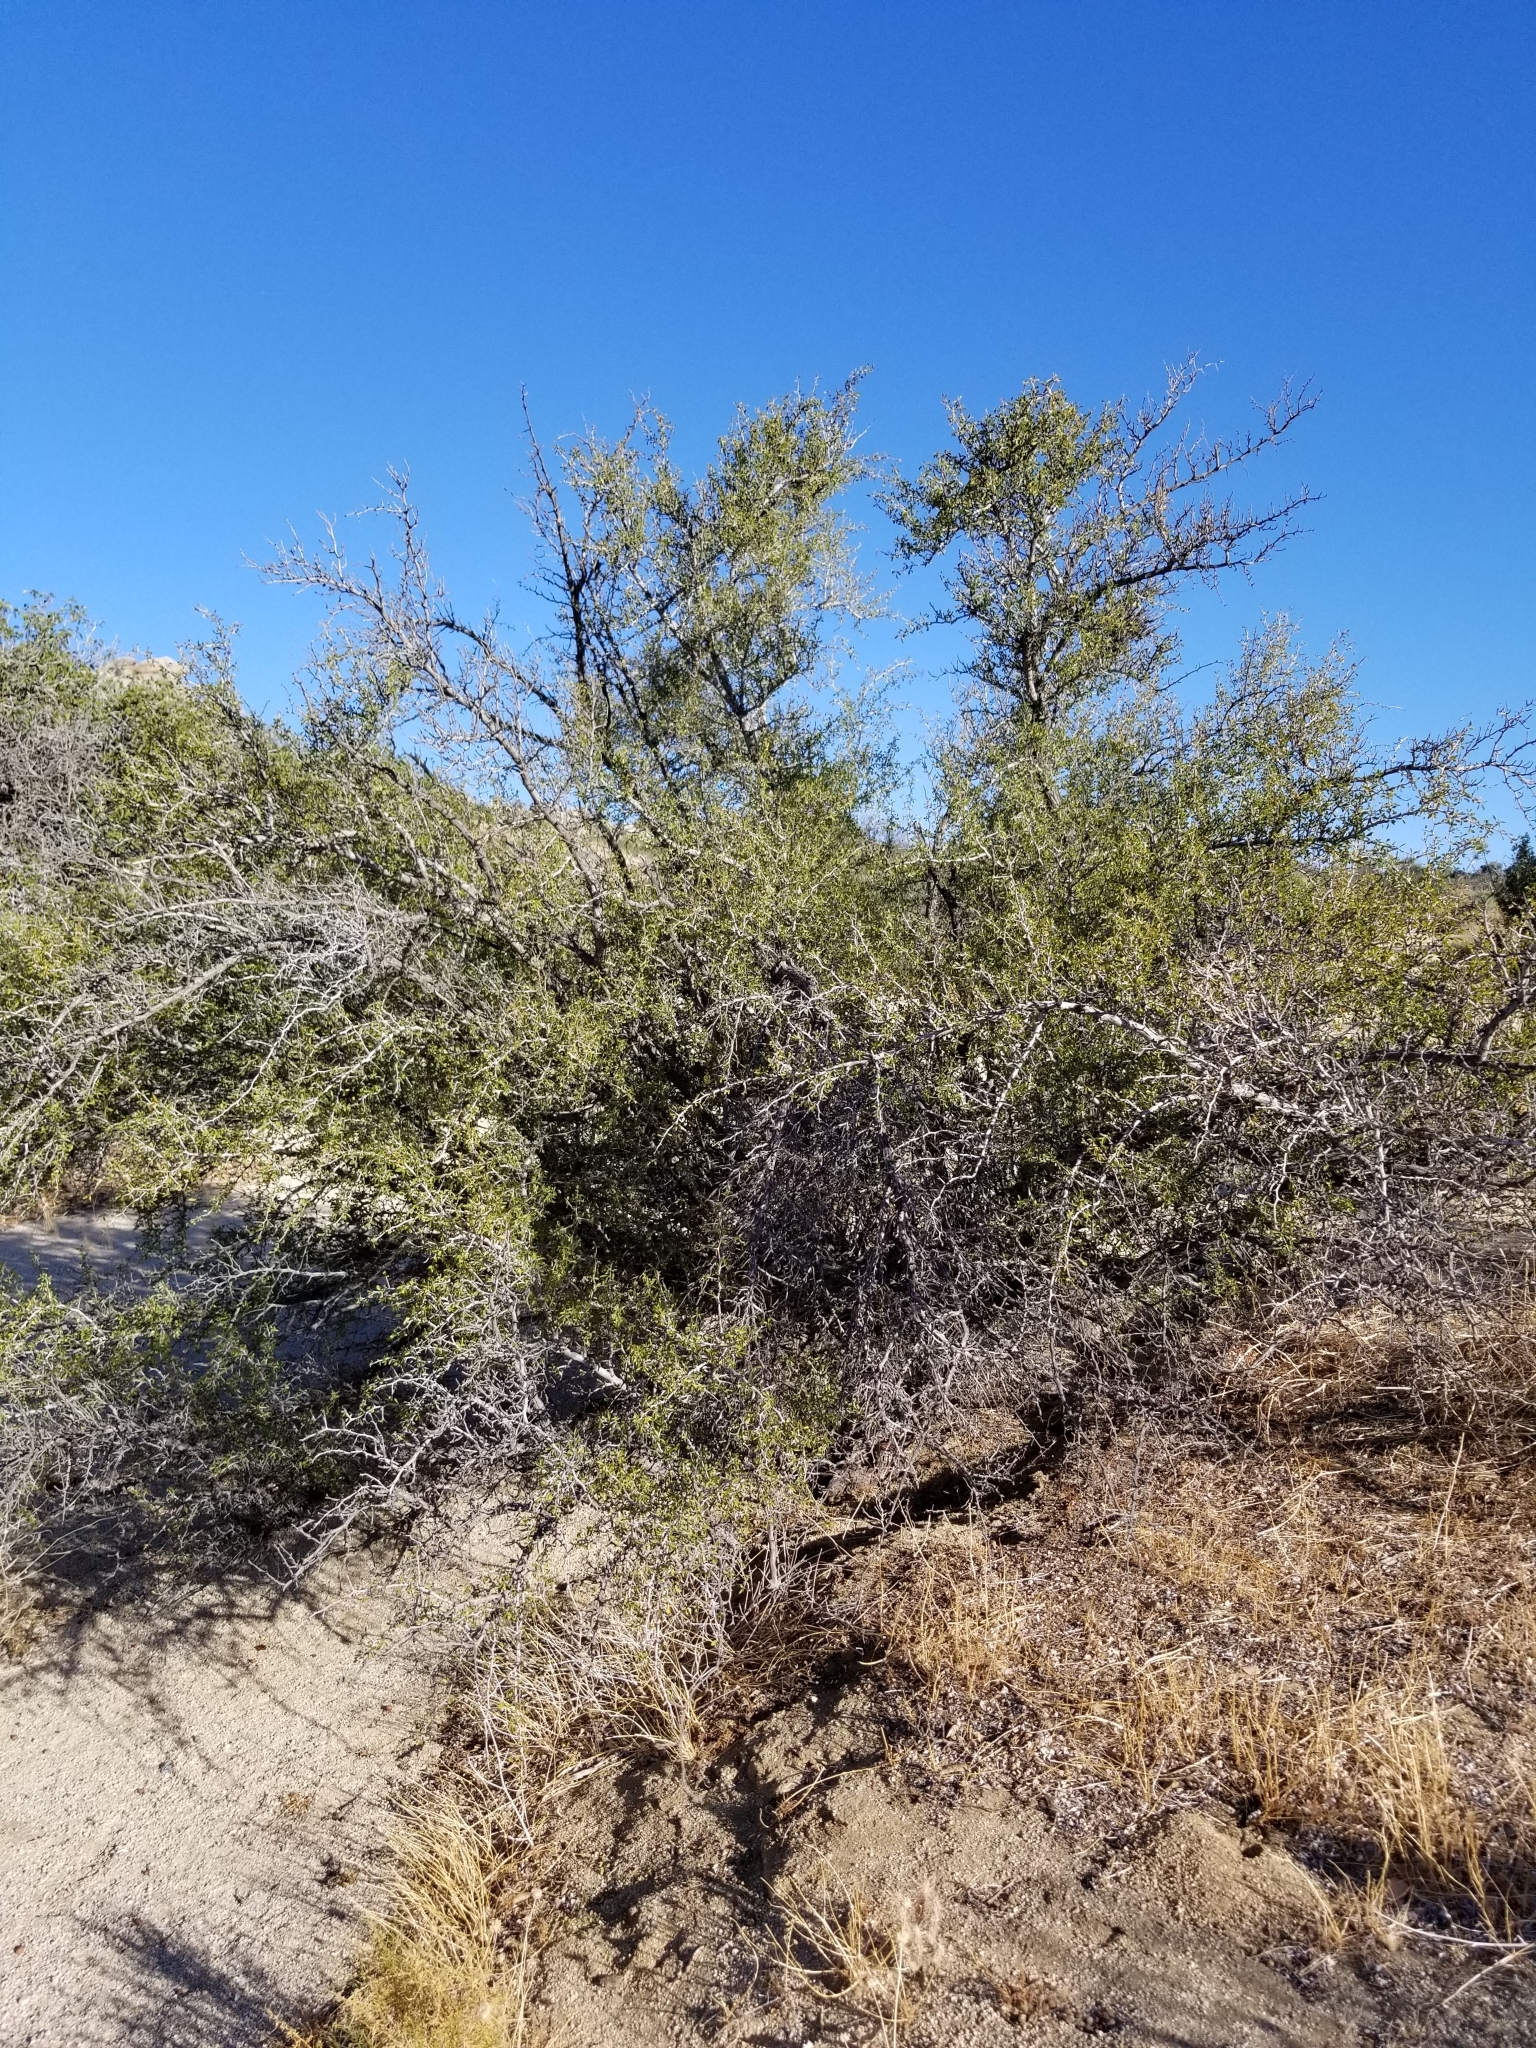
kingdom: Plantae
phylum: Tracheophyta
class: Magnoliopsida
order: Rosales
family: Rhamnaceae
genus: Pseudoziziphus
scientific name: Pseudoziziphus parryi
